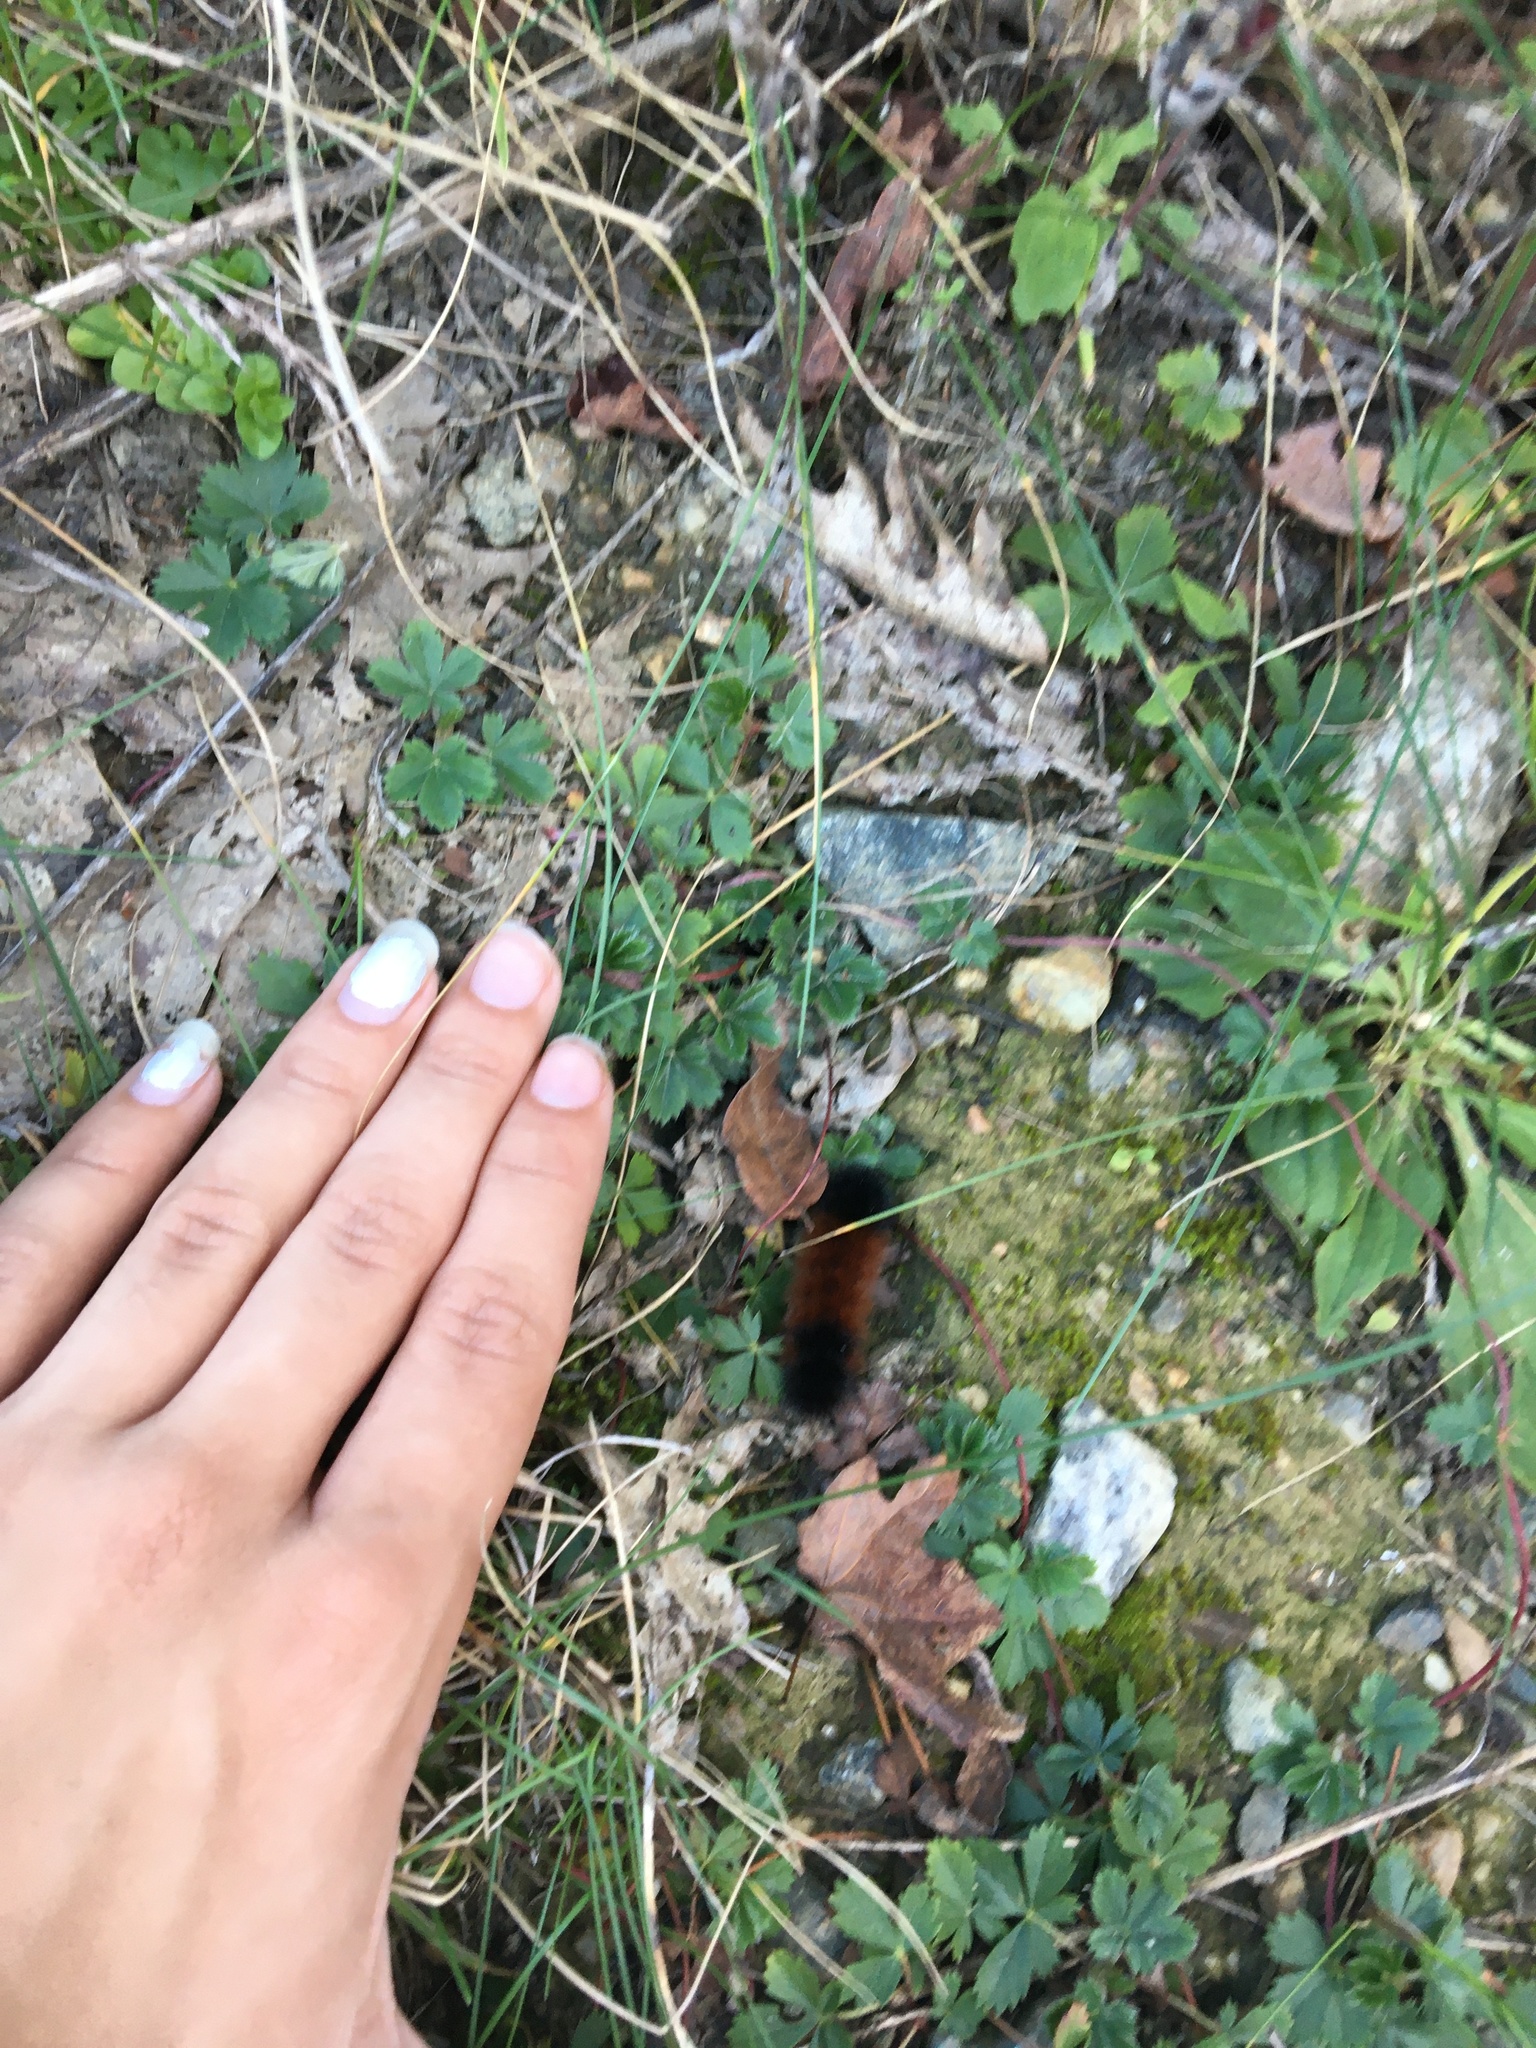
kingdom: Animalia
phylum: Arthropoda
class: Insecta
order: Lepidoptera
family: Erebidae
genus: Pyrrharctia
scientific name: Pyrrharctia isabella
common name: Isabella tiger moth
